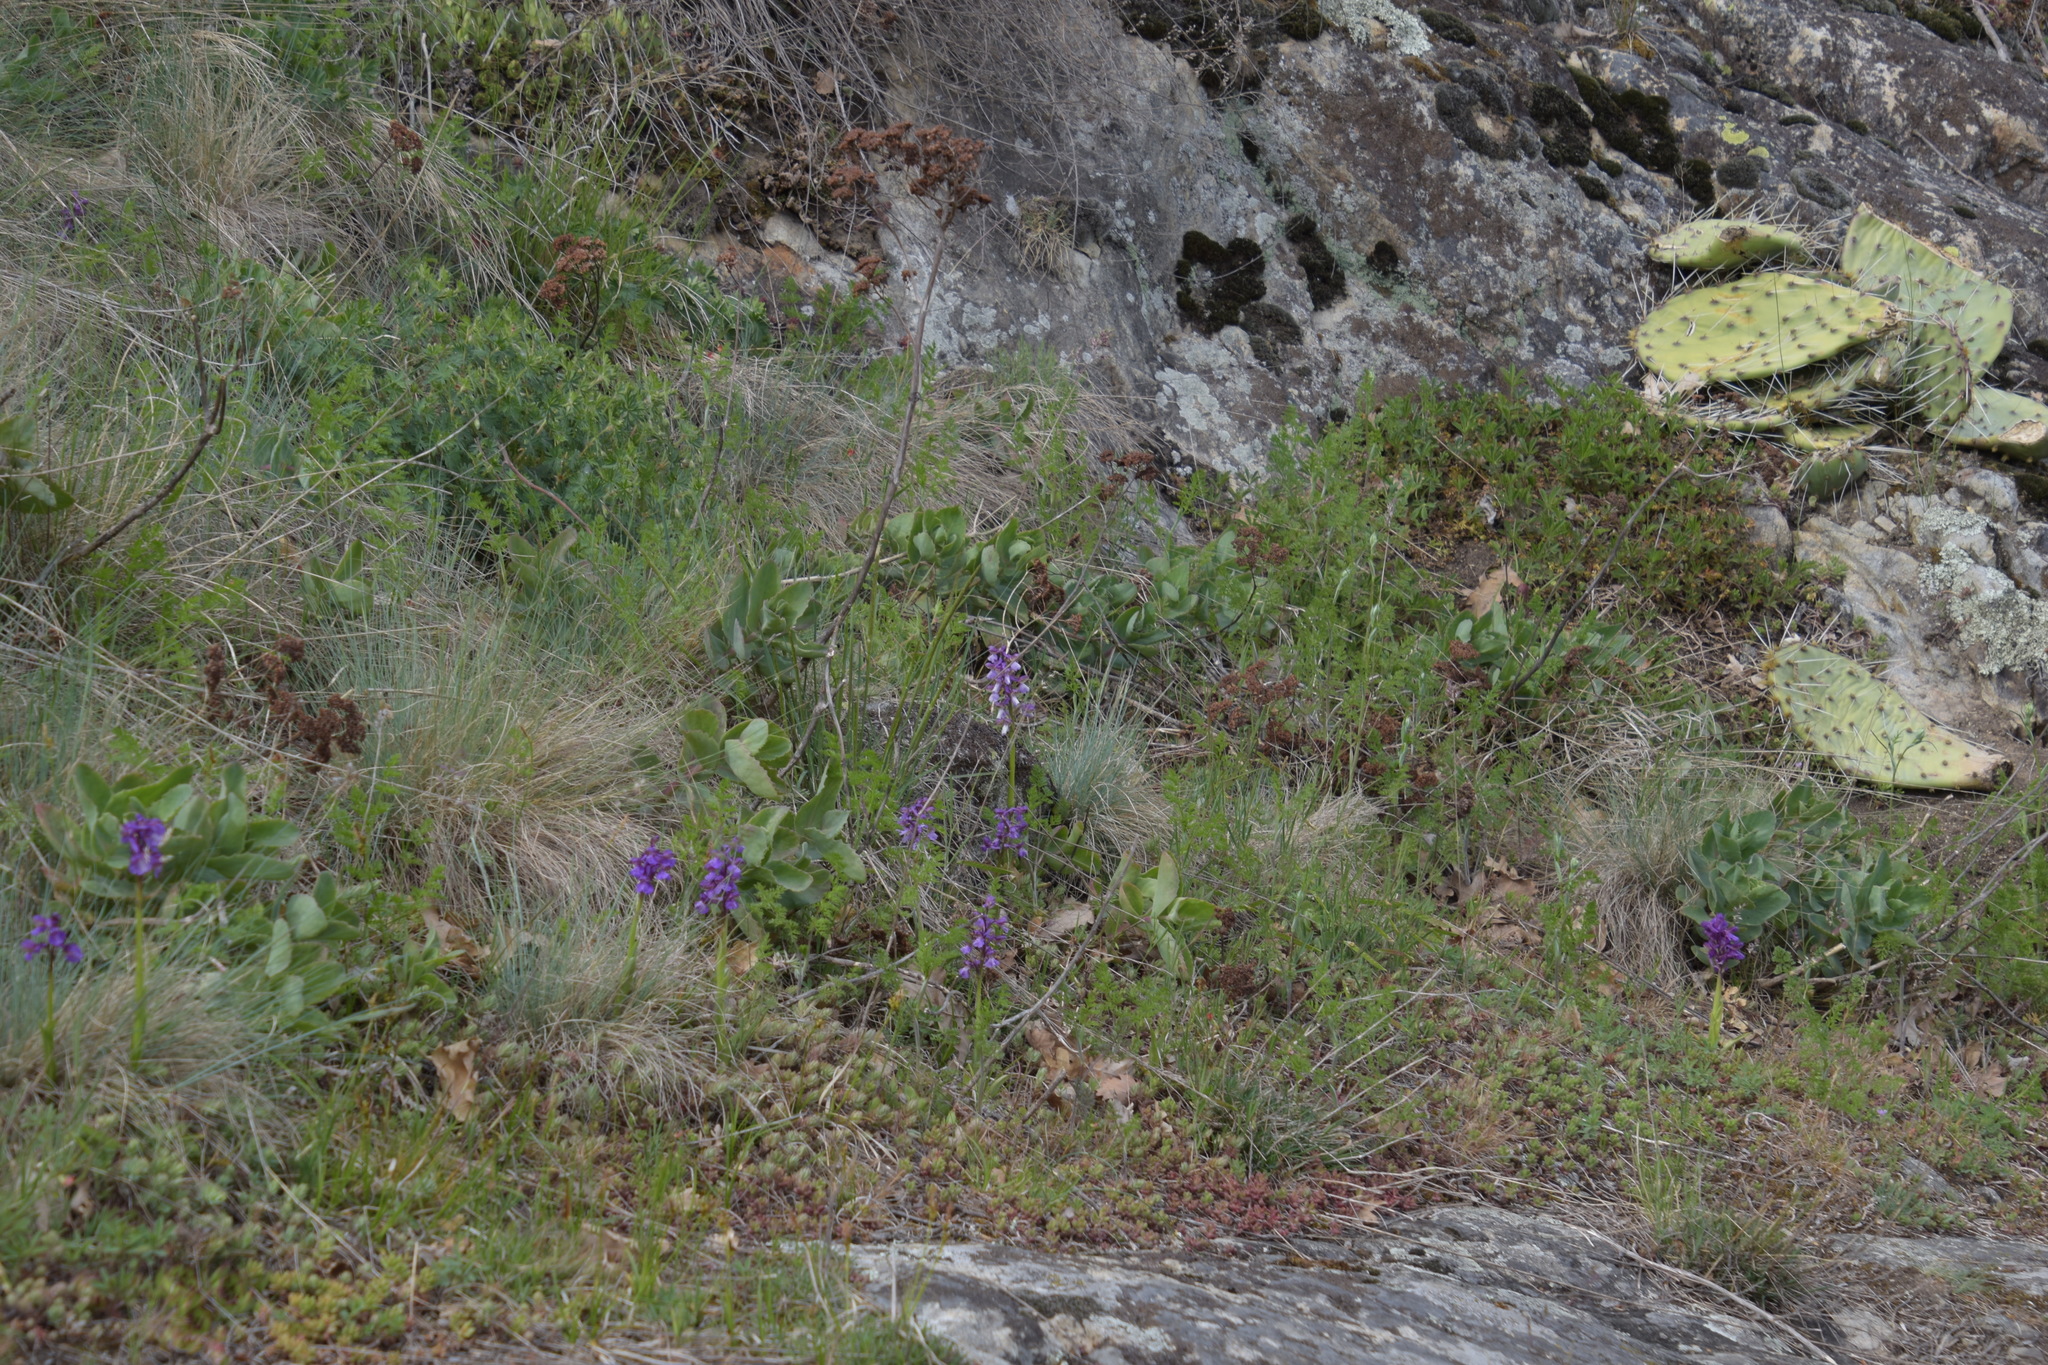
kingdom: Plantae
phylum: Tracheophyta
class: Liliopsida
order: Asparagales
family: Orchidaceae
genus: Anacamptis
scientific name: Anacamptis morio
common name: Green-winged orchid
